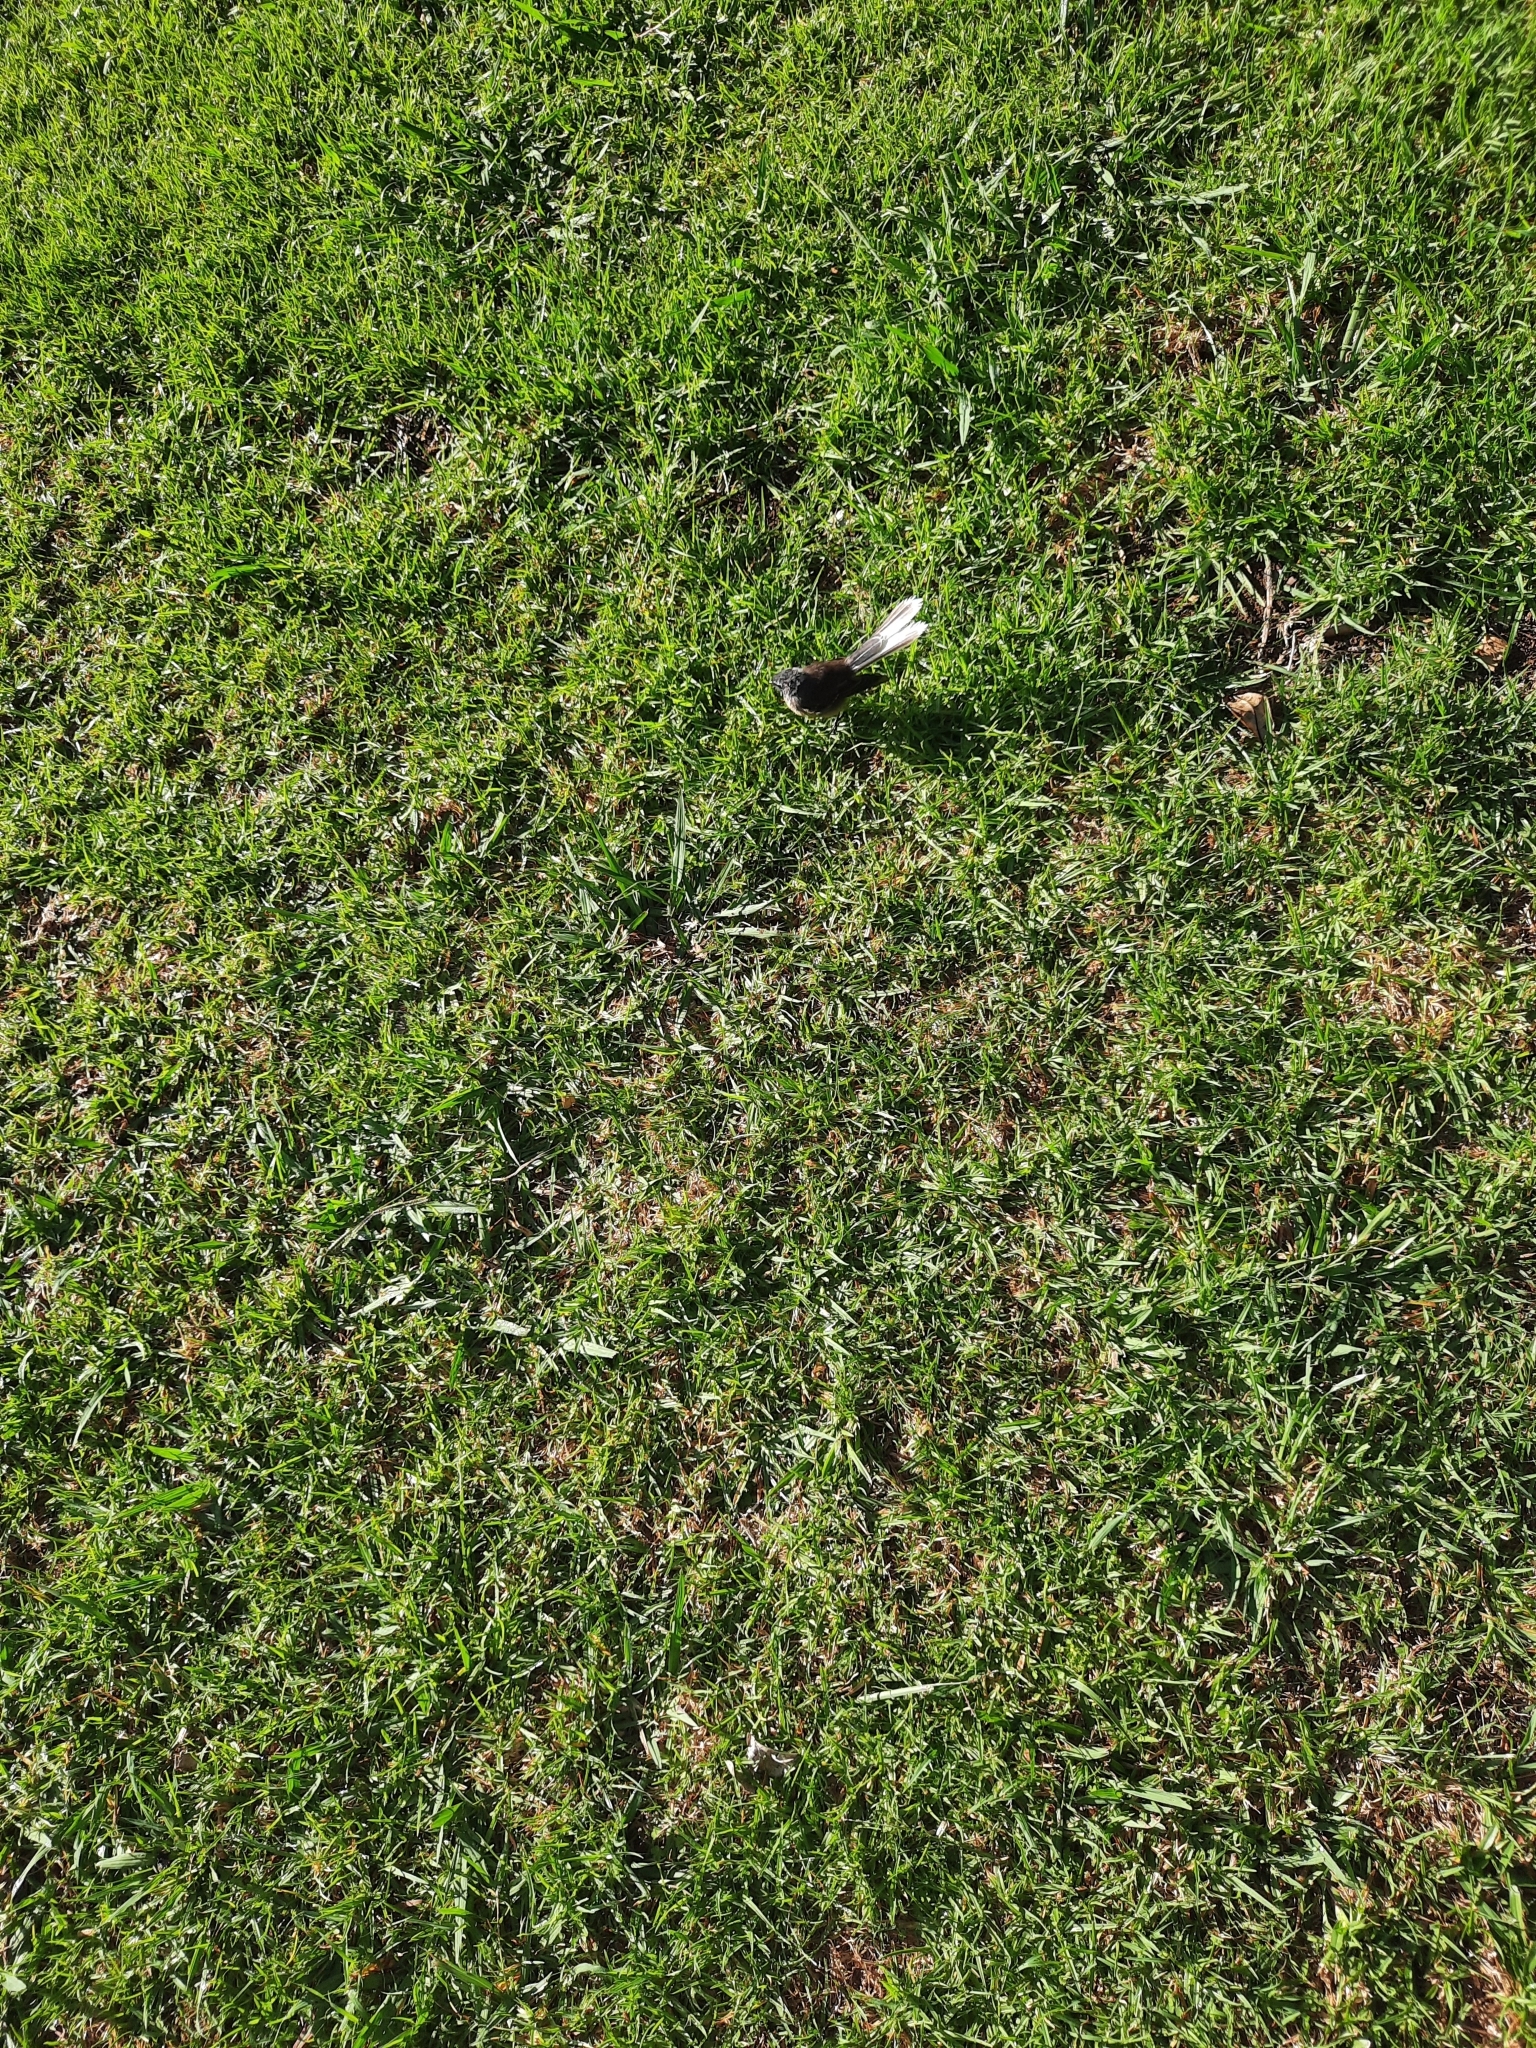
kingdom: Animalia
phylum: Chordata
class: Aves
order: Passeriformes
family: Rhipiduridae
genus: Rhipidura
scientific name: Rhipidura fuliginosa
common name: New zealand fantail
